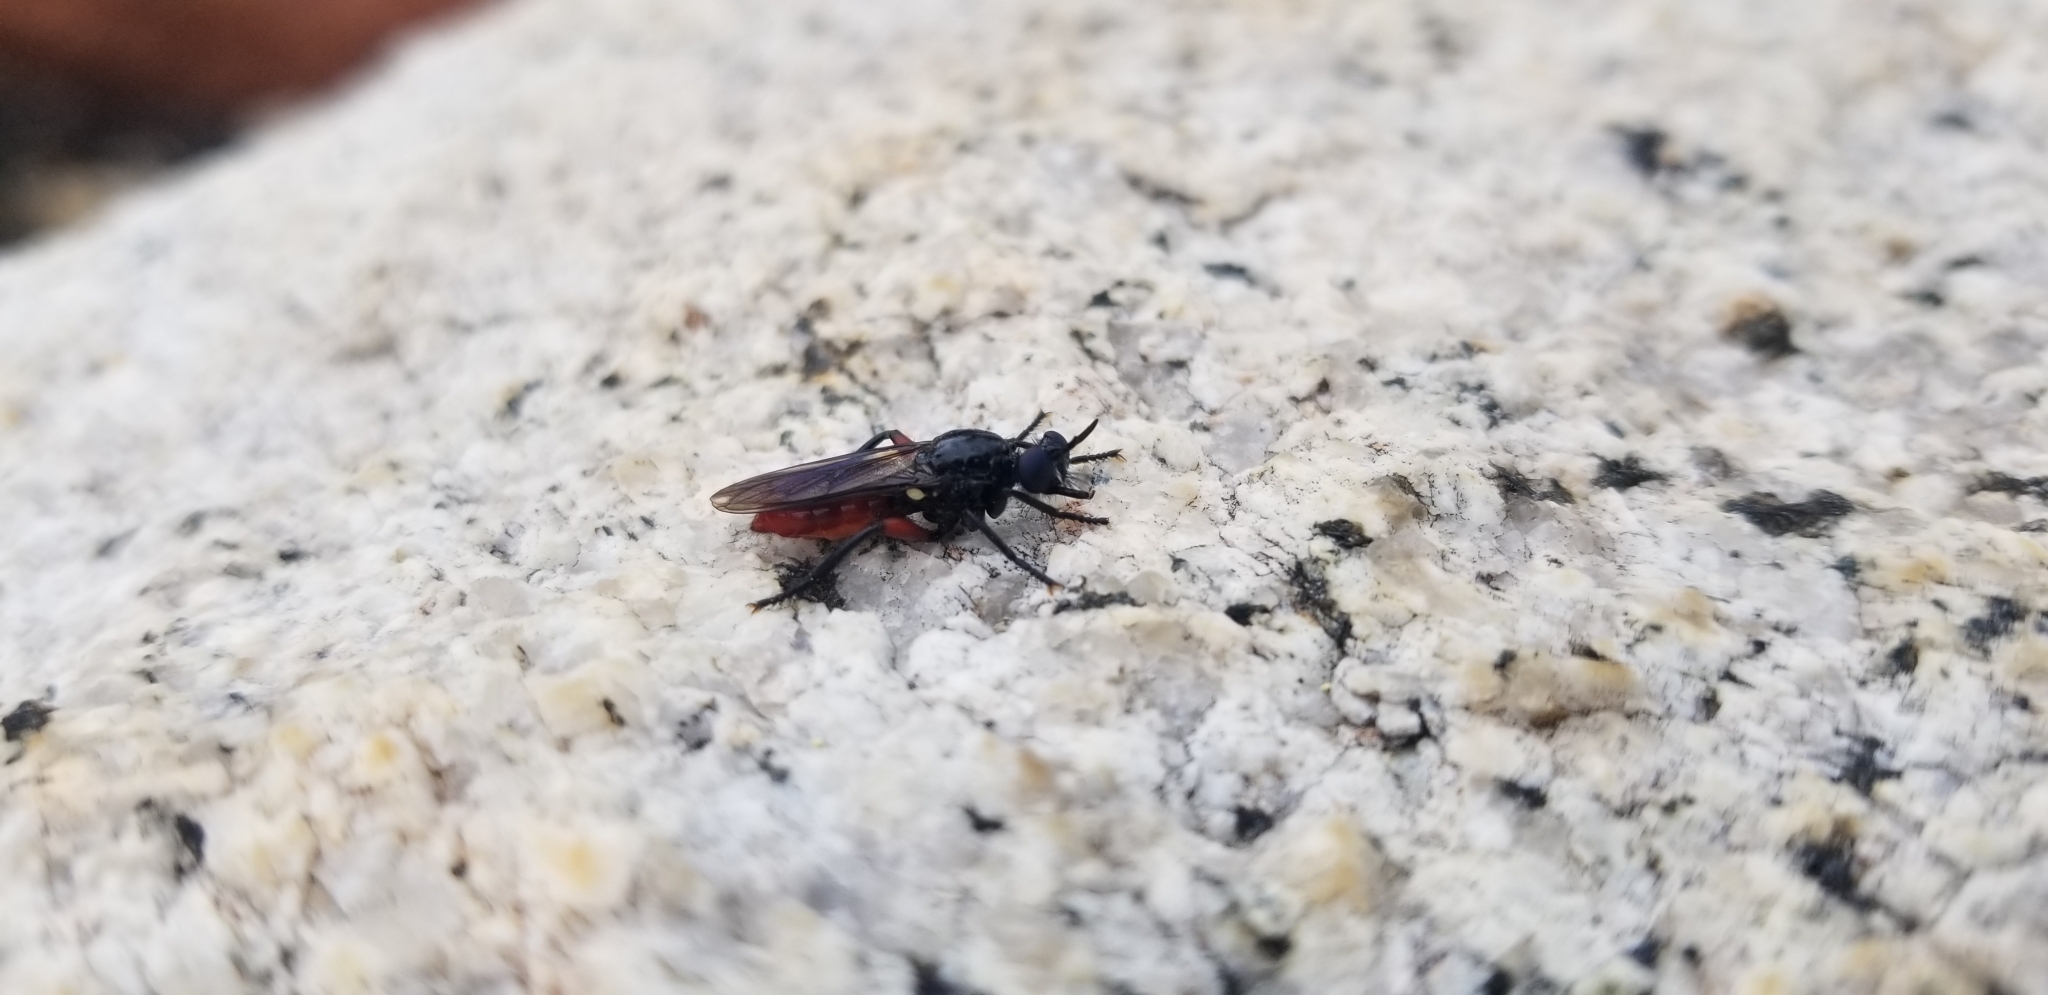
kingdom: Animalia
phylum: Arthropoda
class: Insecta
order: Diptera
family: Asilidae
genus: Laphria
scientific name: Laphria felis
